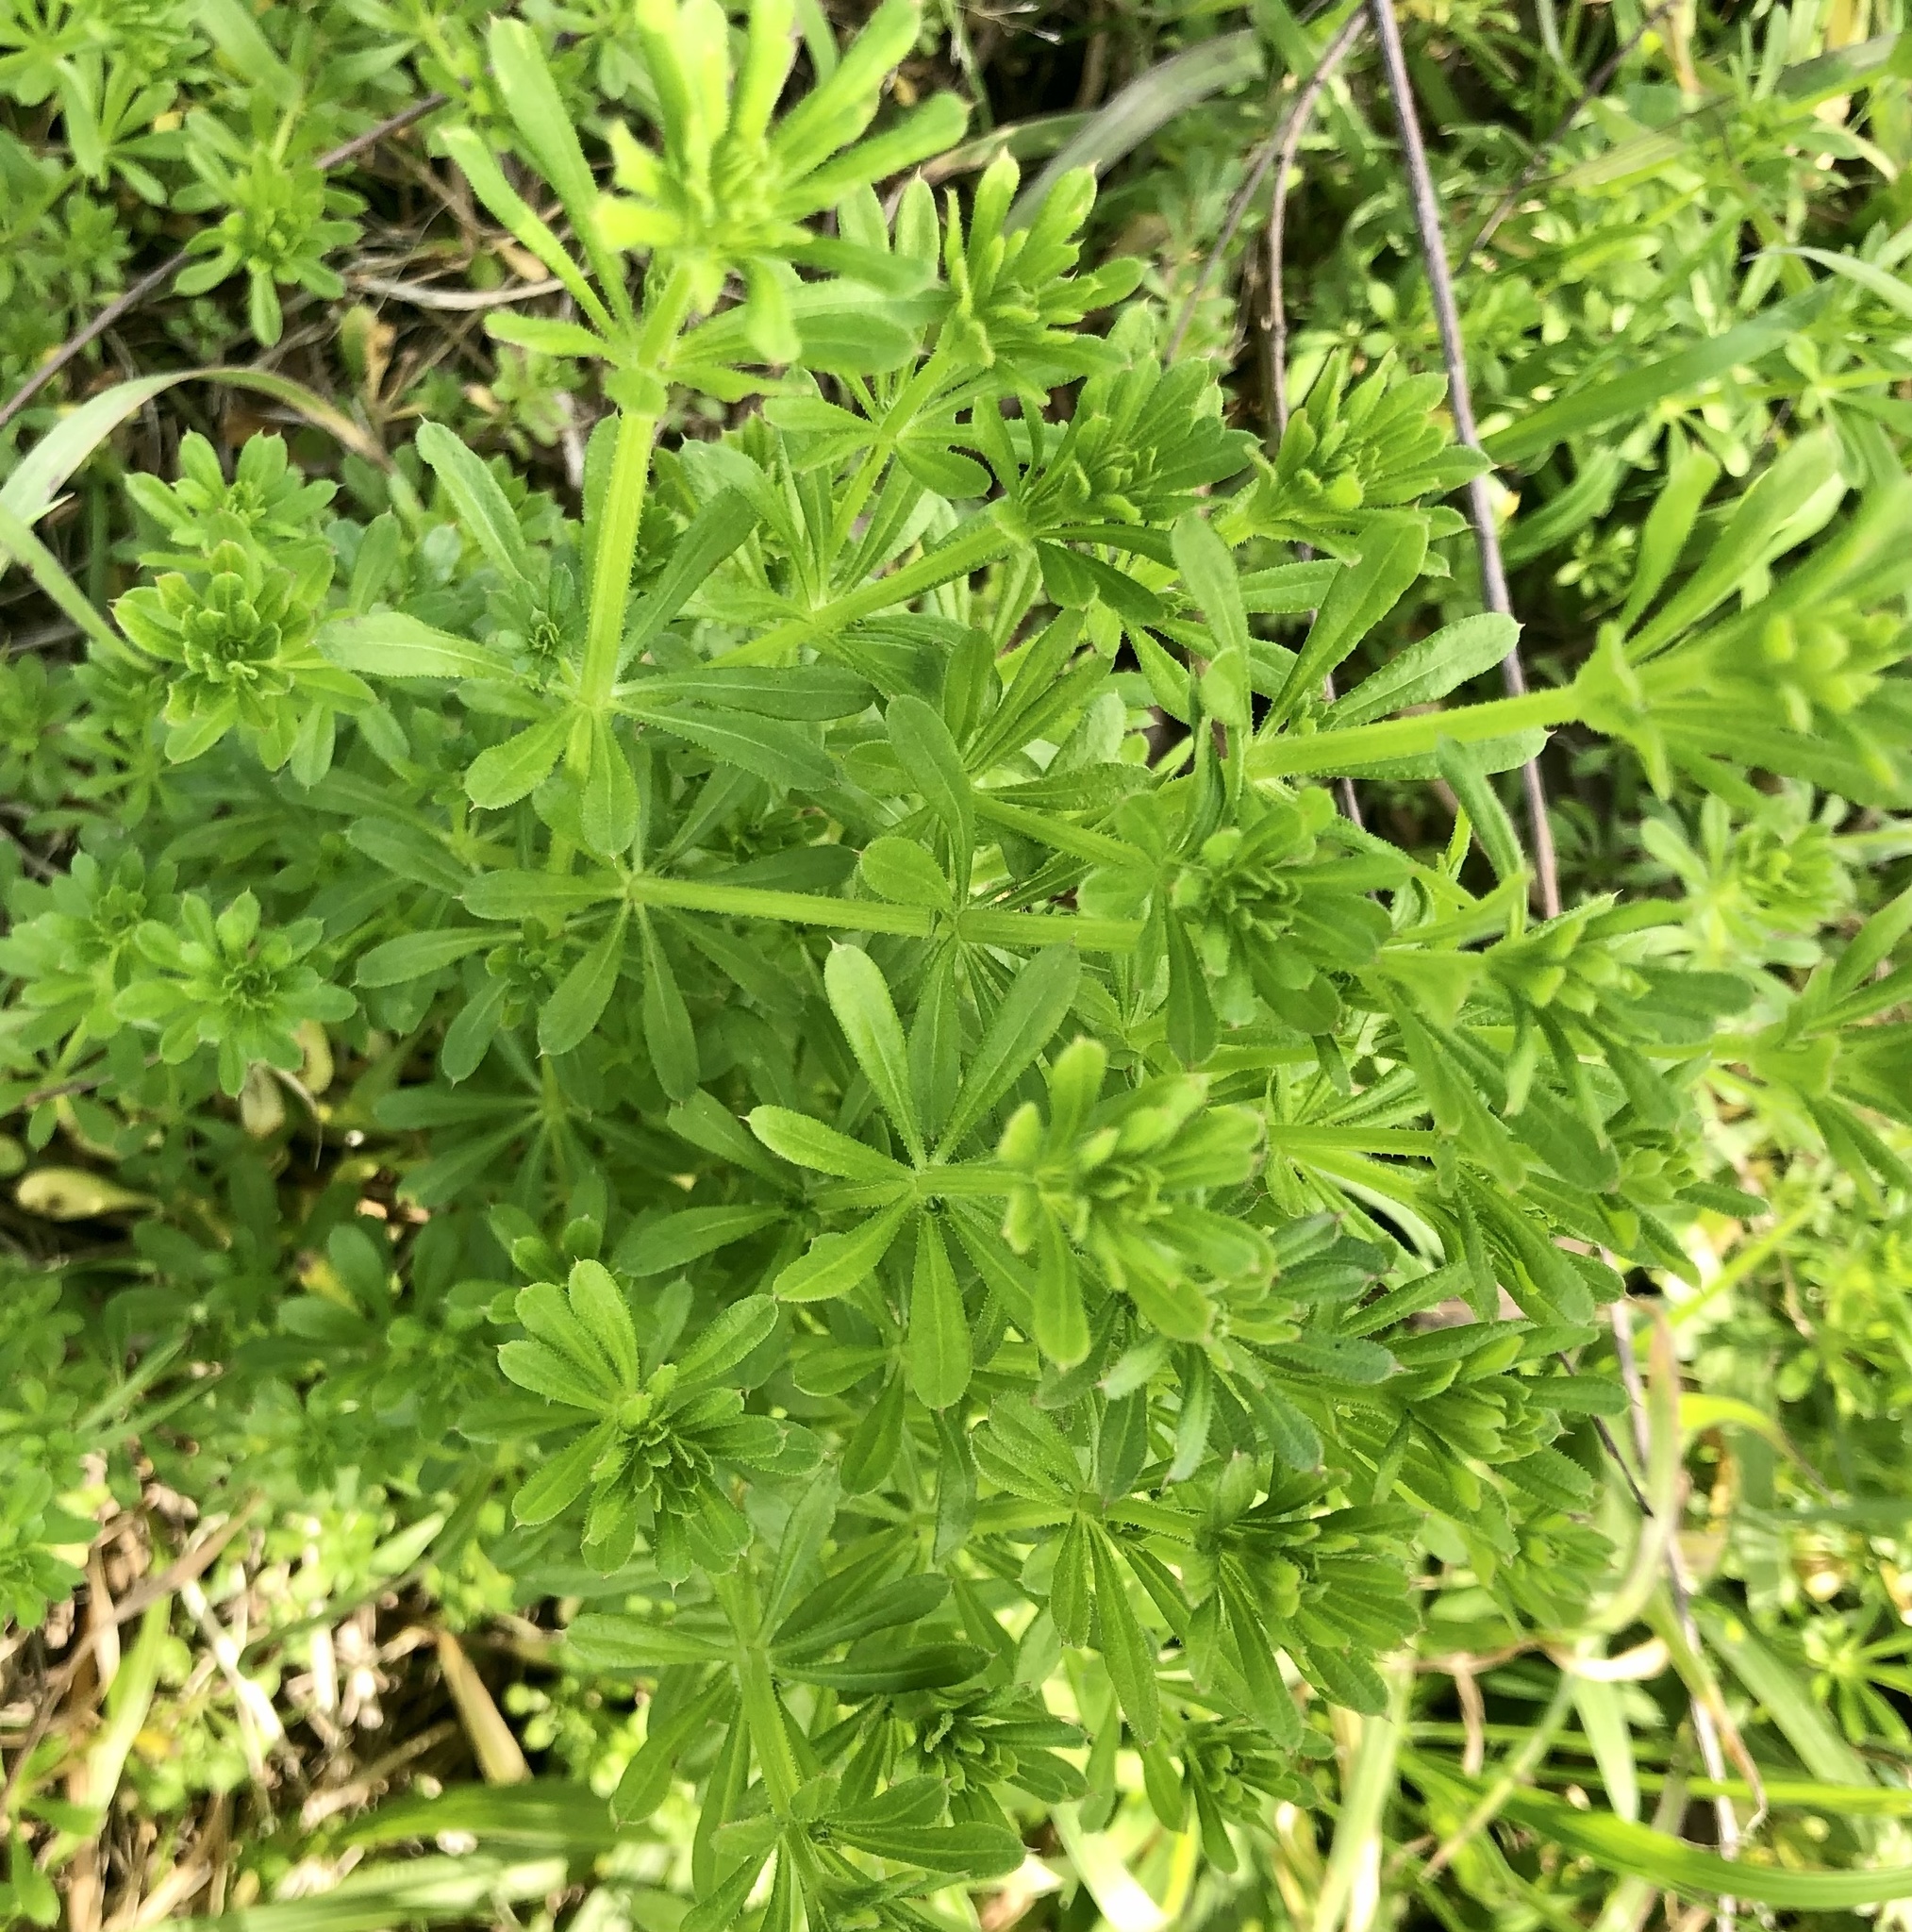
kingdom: Plantae
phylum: Tracheophyta
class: Magnoliopsida
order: Gentianales
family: Rubiaceae
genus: Galium
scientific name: Galium aparine
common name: Cleavers
